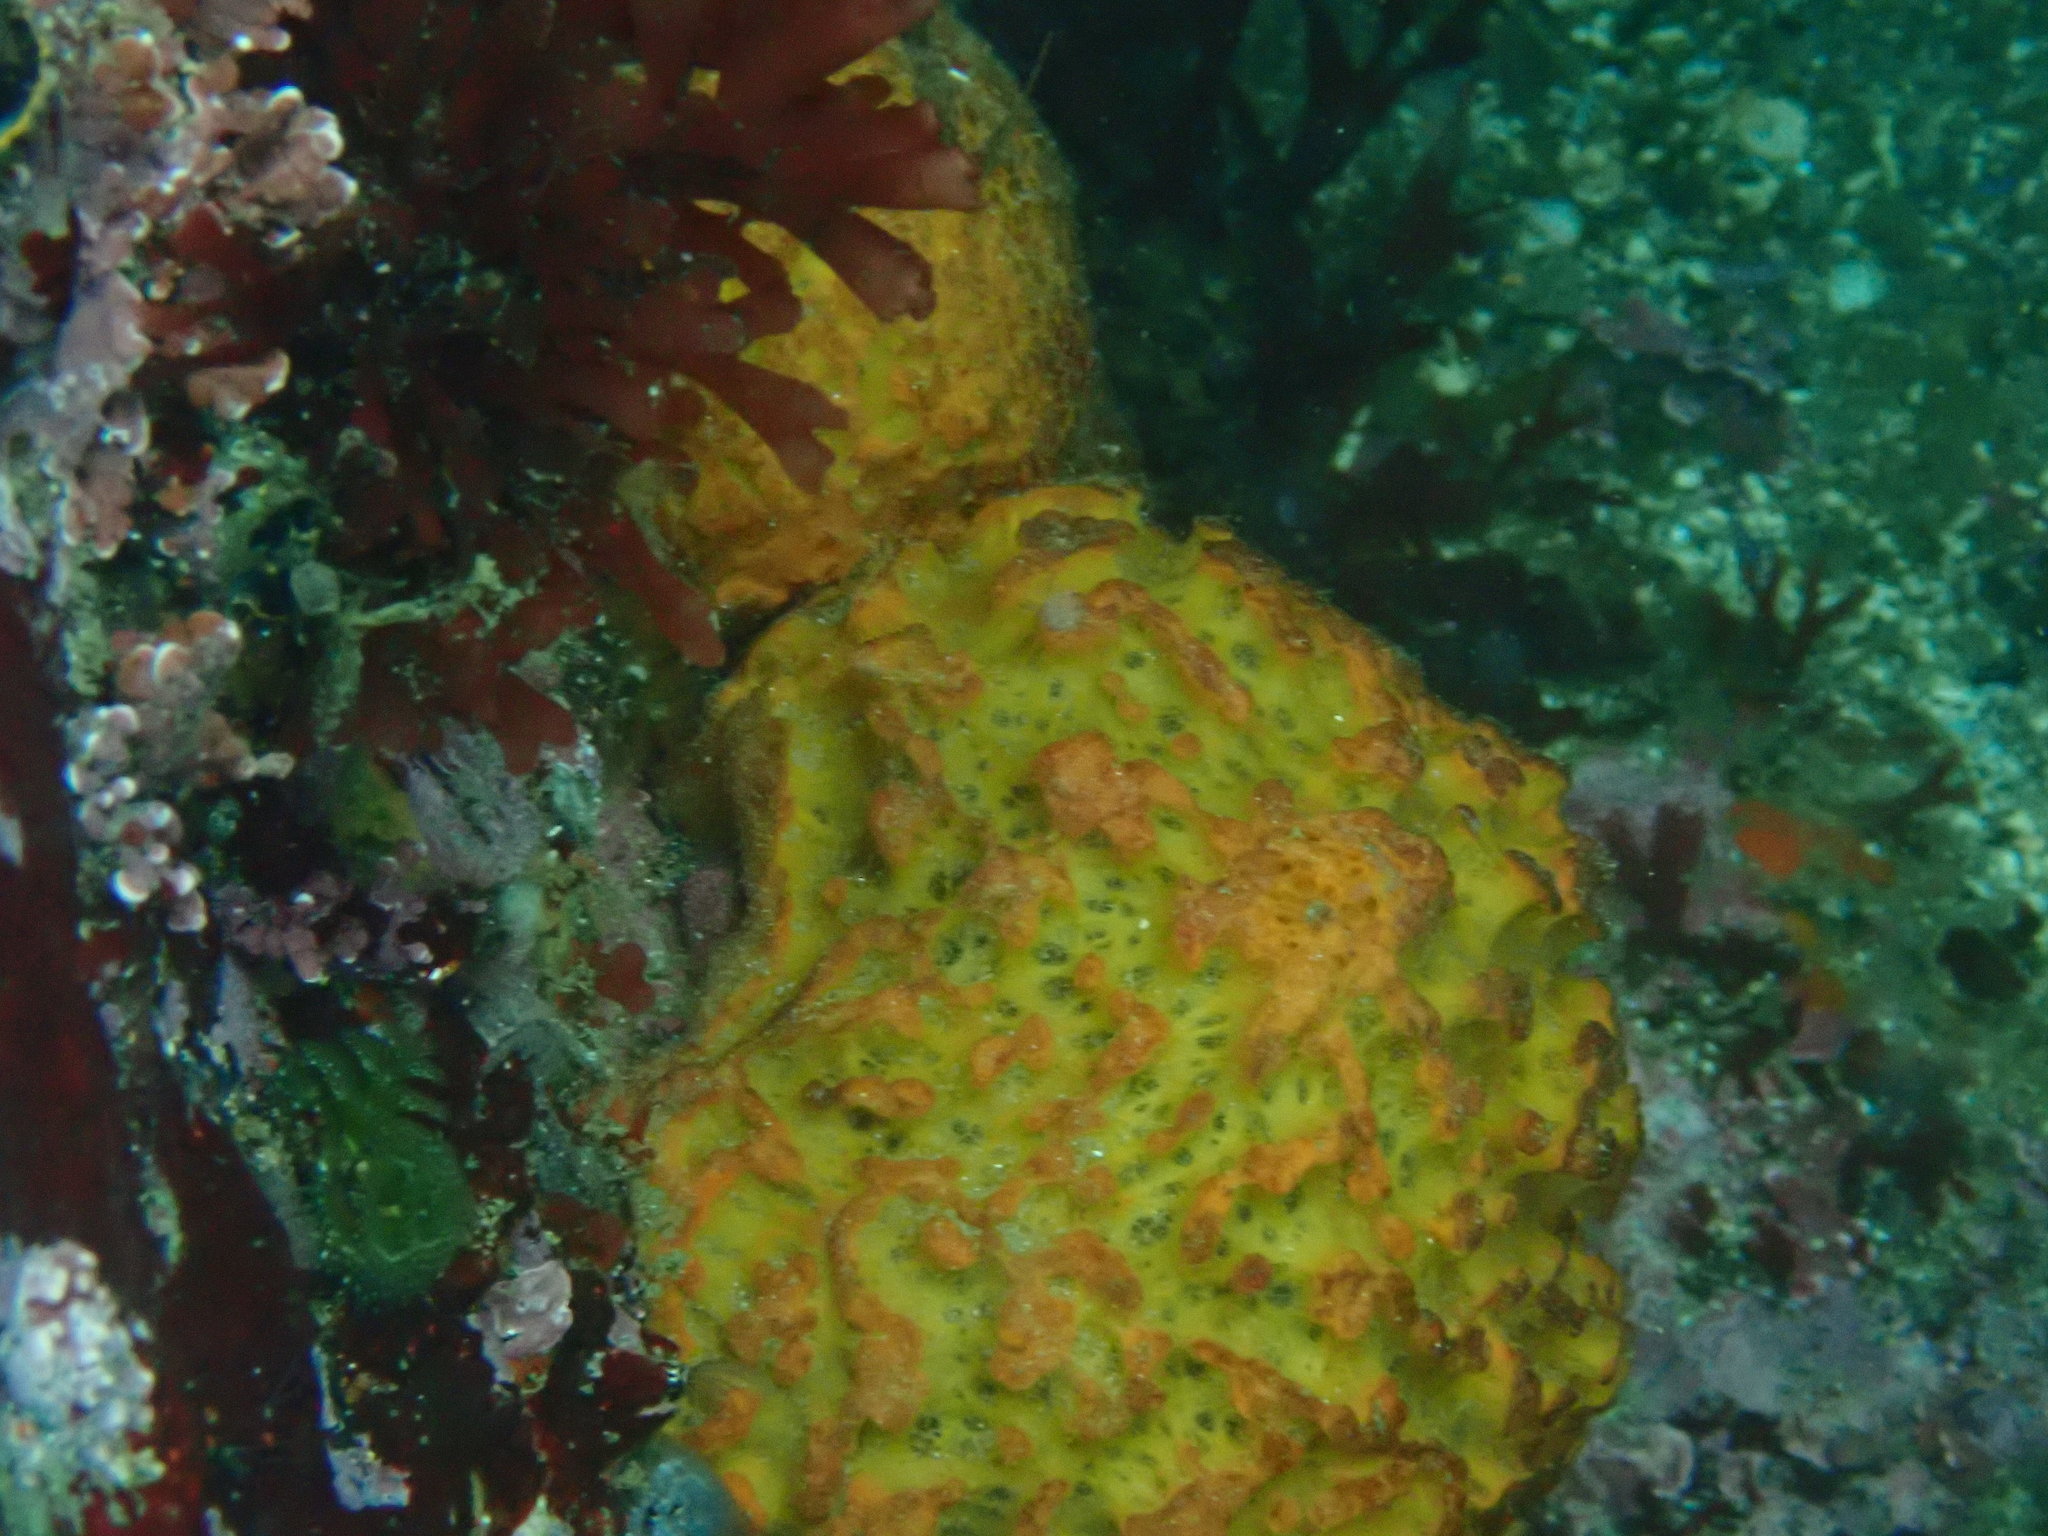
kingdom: Animalia
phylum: Porifera
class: Demospongiae
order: Tethyida
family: Tethyidae
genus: Tethya
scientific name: Tethya californiana
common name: Orange rough ball horny sponge
